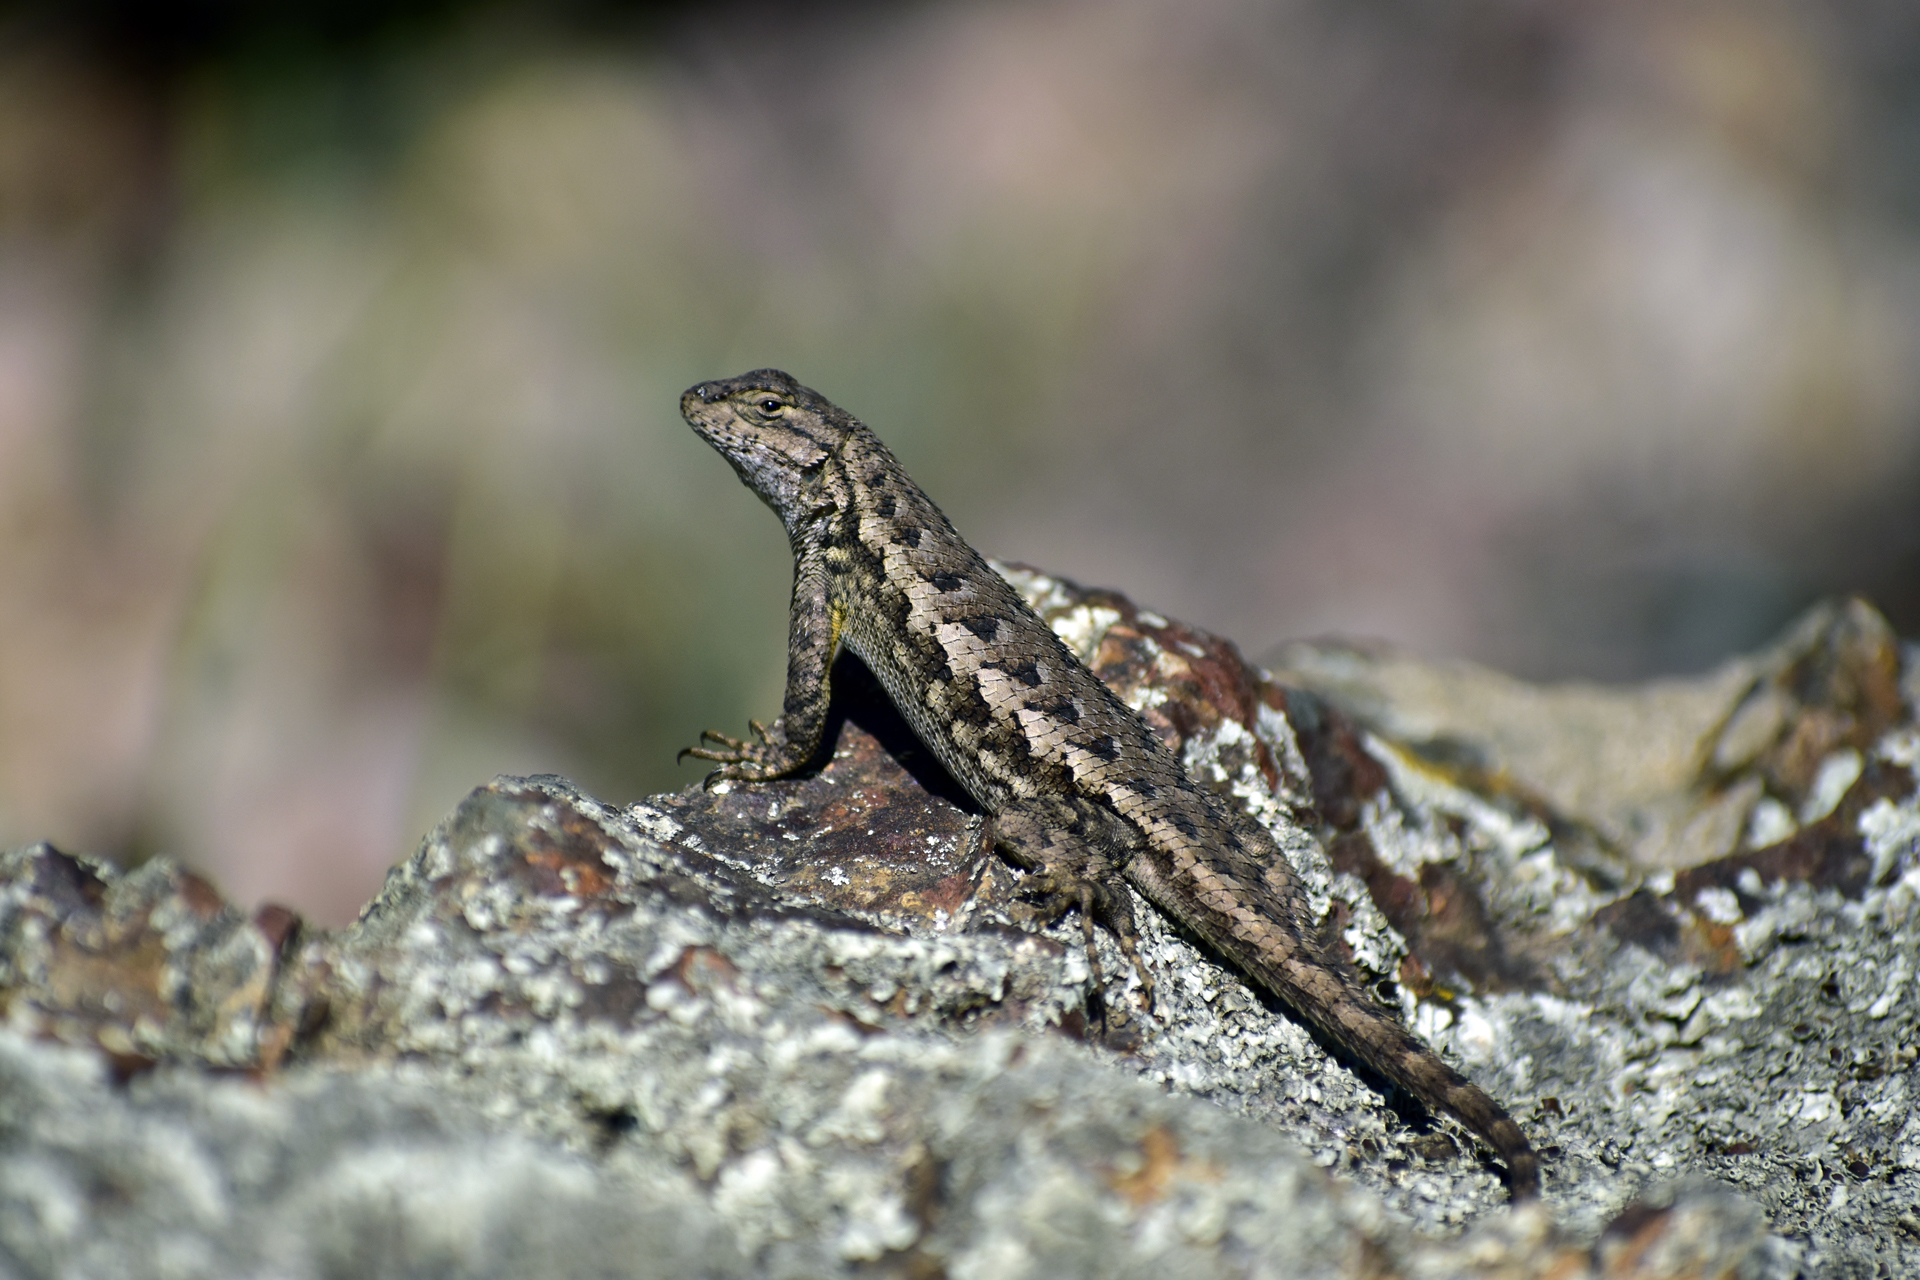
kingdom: Animalia
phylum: Chordata
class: Squamata
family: Phrynosomatidae
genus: Sceloporus
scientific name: Sceloporus occidentalis
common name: Western fence lizard
